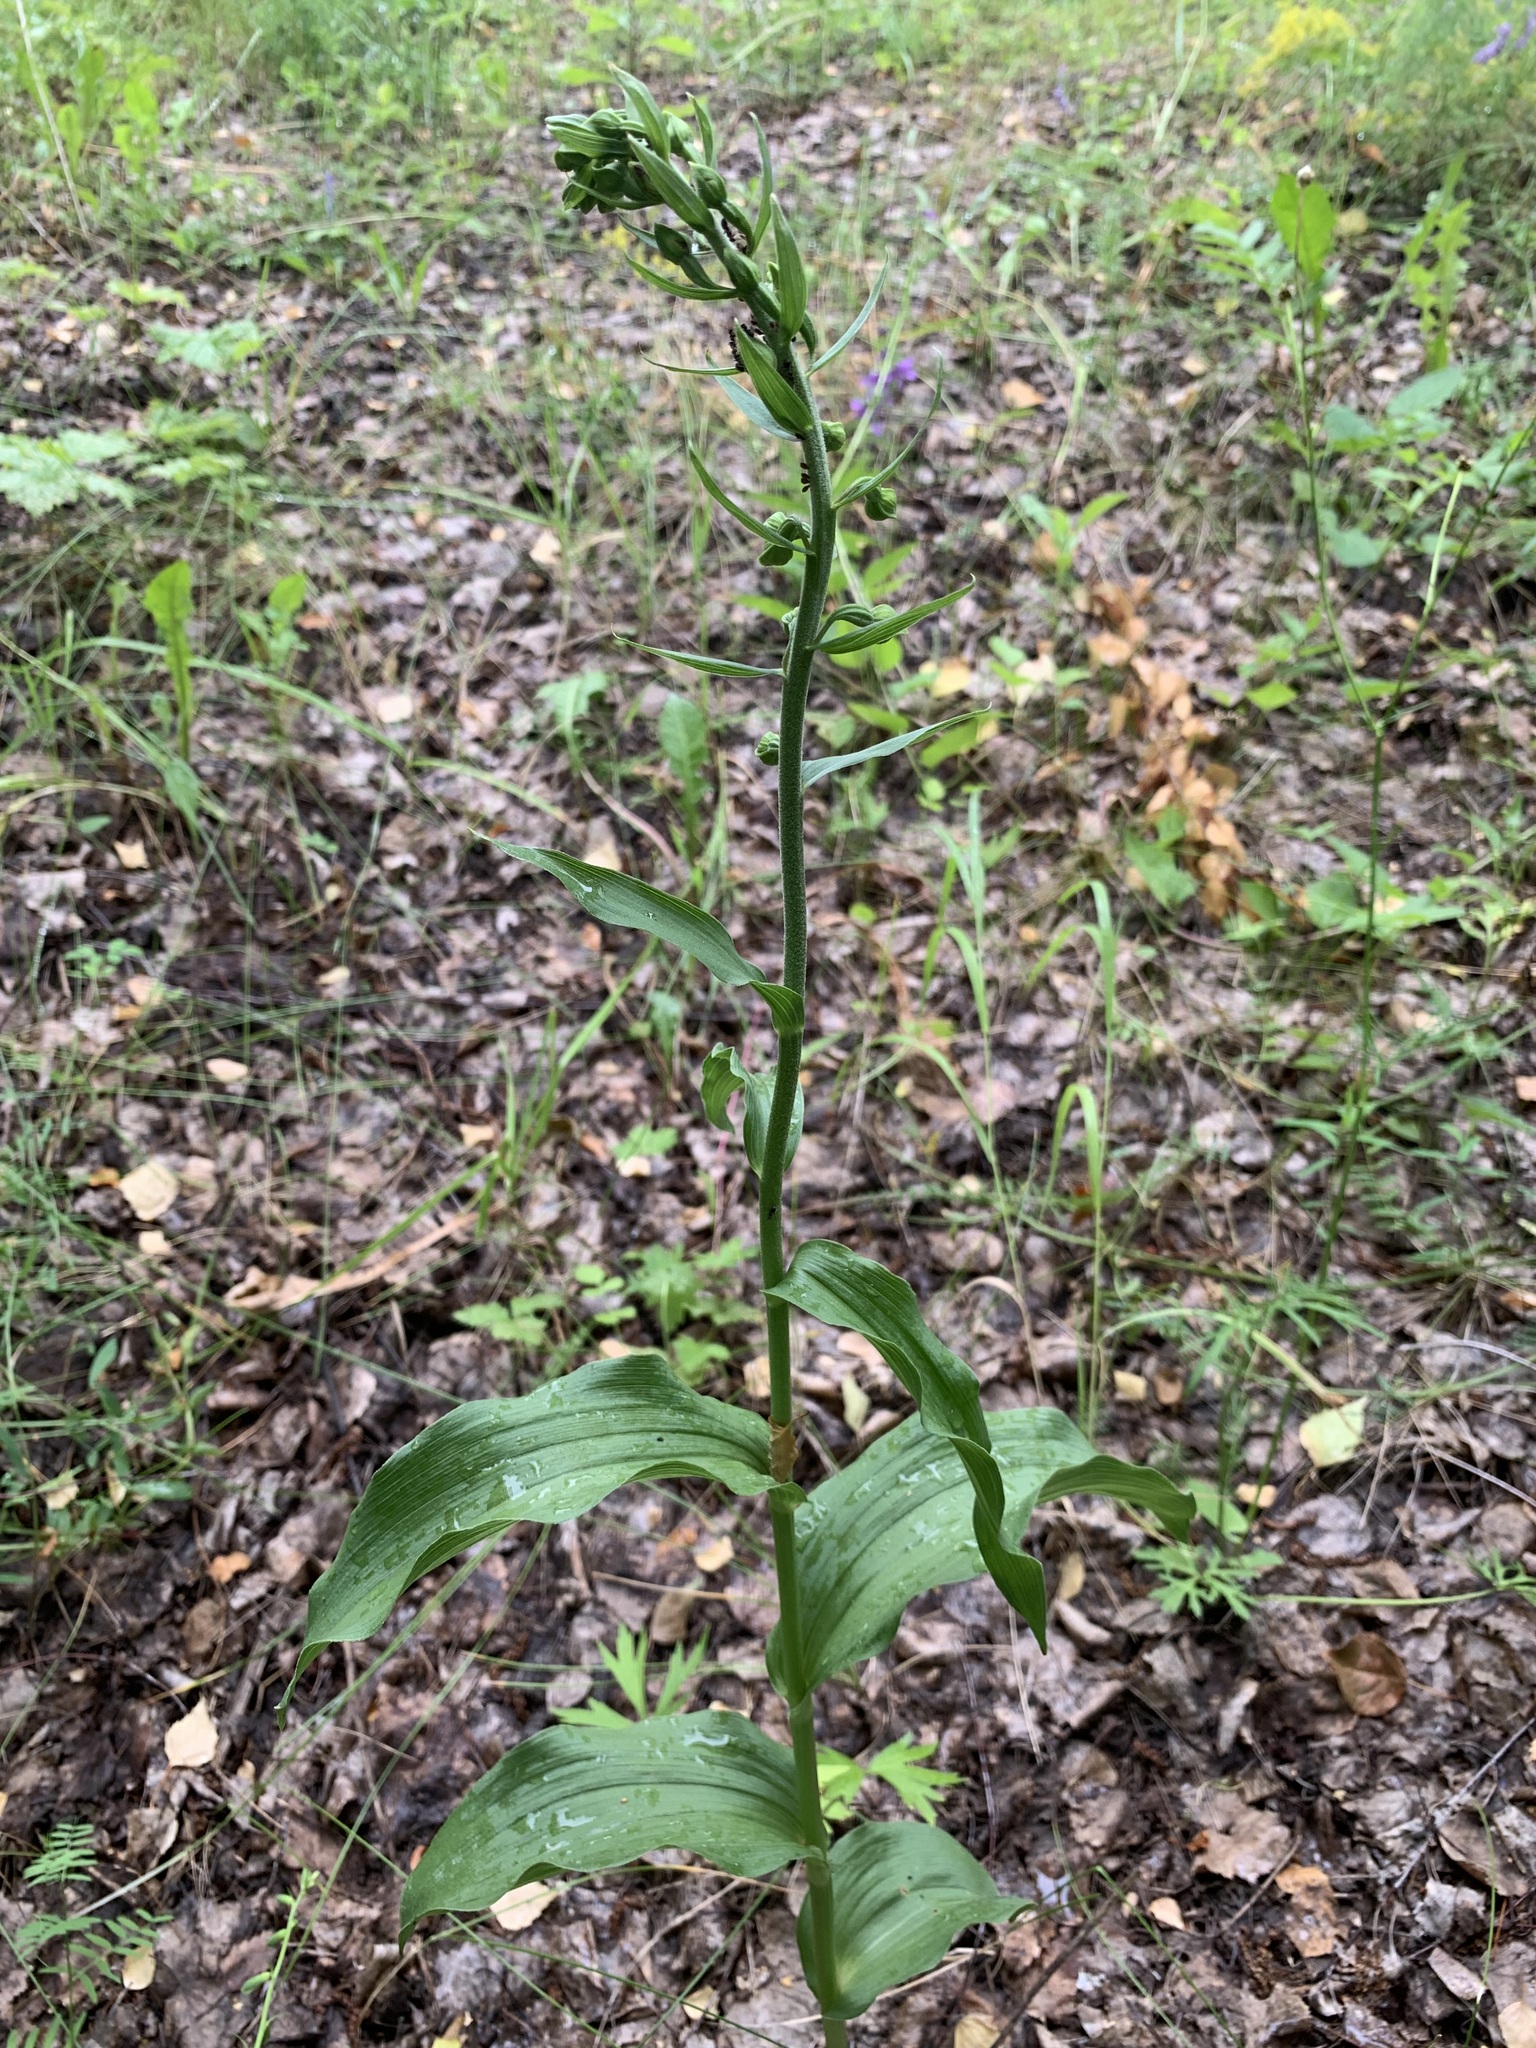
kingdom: Plantae
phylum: Tracheophyta
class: Liliopsida
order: Asparagales
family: Orchidaceae
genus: Epipactis
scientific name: Epipactis helleborine
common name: Broad-leaved helleborine
